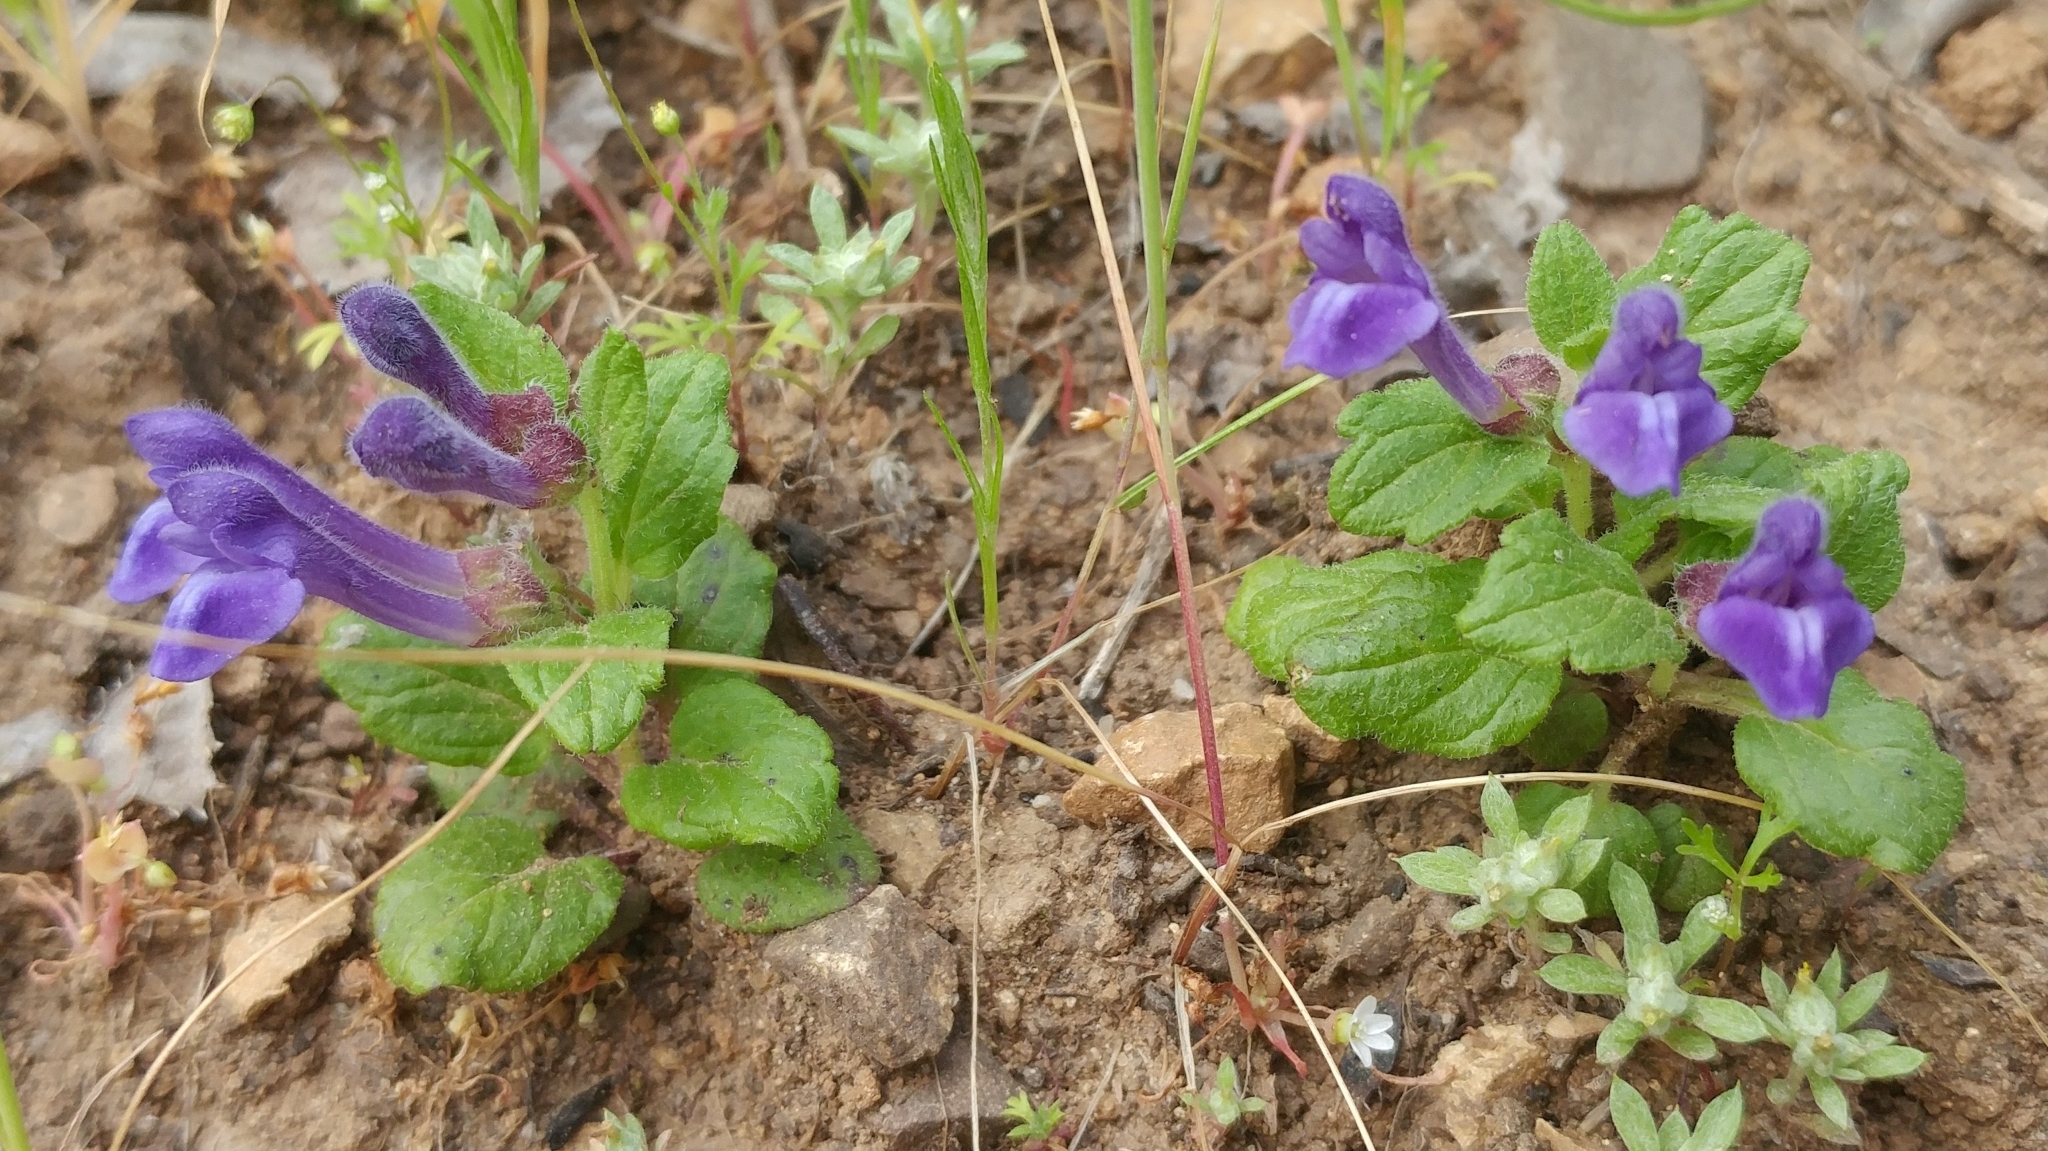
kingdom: Plantae
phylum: Tracheophyta
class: Magnoliopsida
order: Lamiales
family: Lamiaceae
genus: Scutellaria
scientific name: Scutellaria tuberosa
